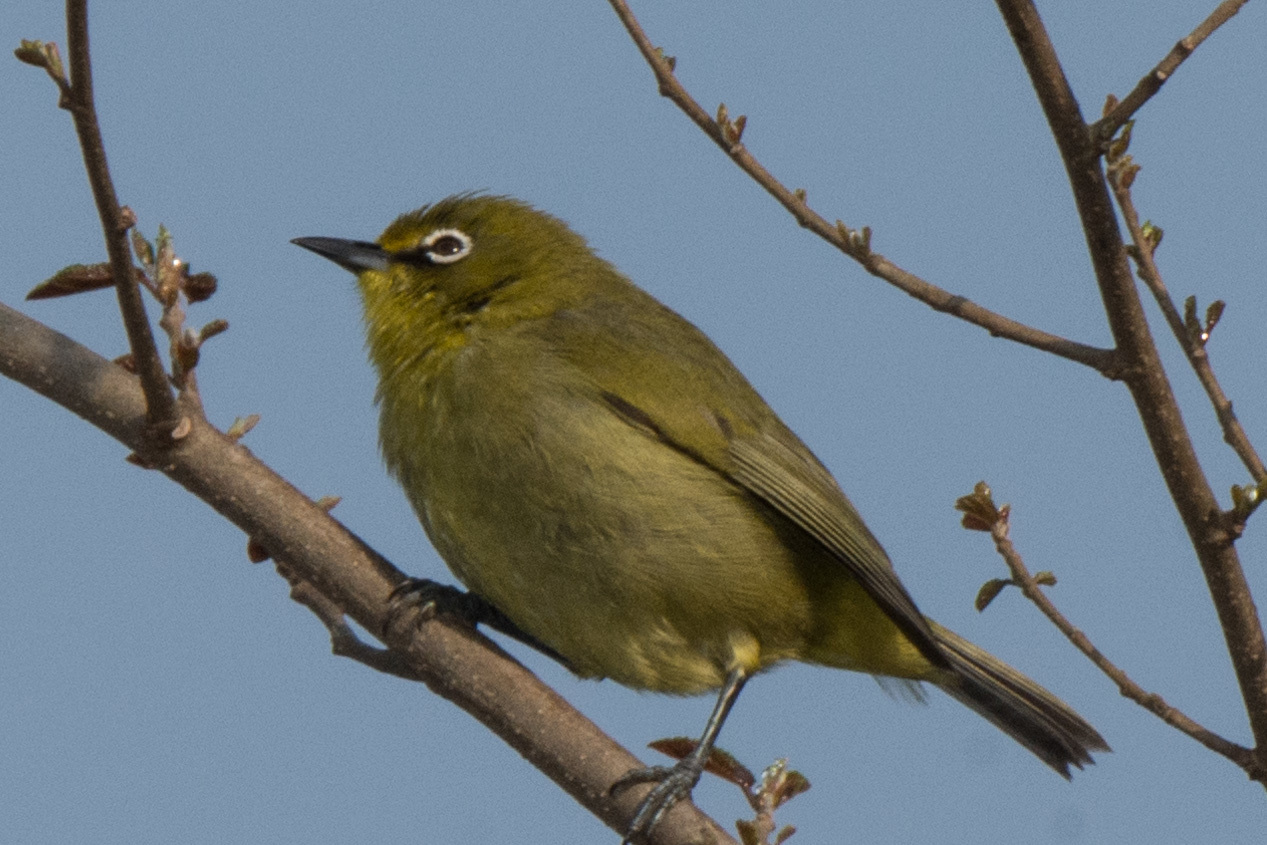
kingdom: Animalia
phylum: Chordata
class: Aves
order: Passeriformes
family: Zosteropidae
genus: Zosterops
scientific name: Zosterops virens
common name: Cape white-eye
